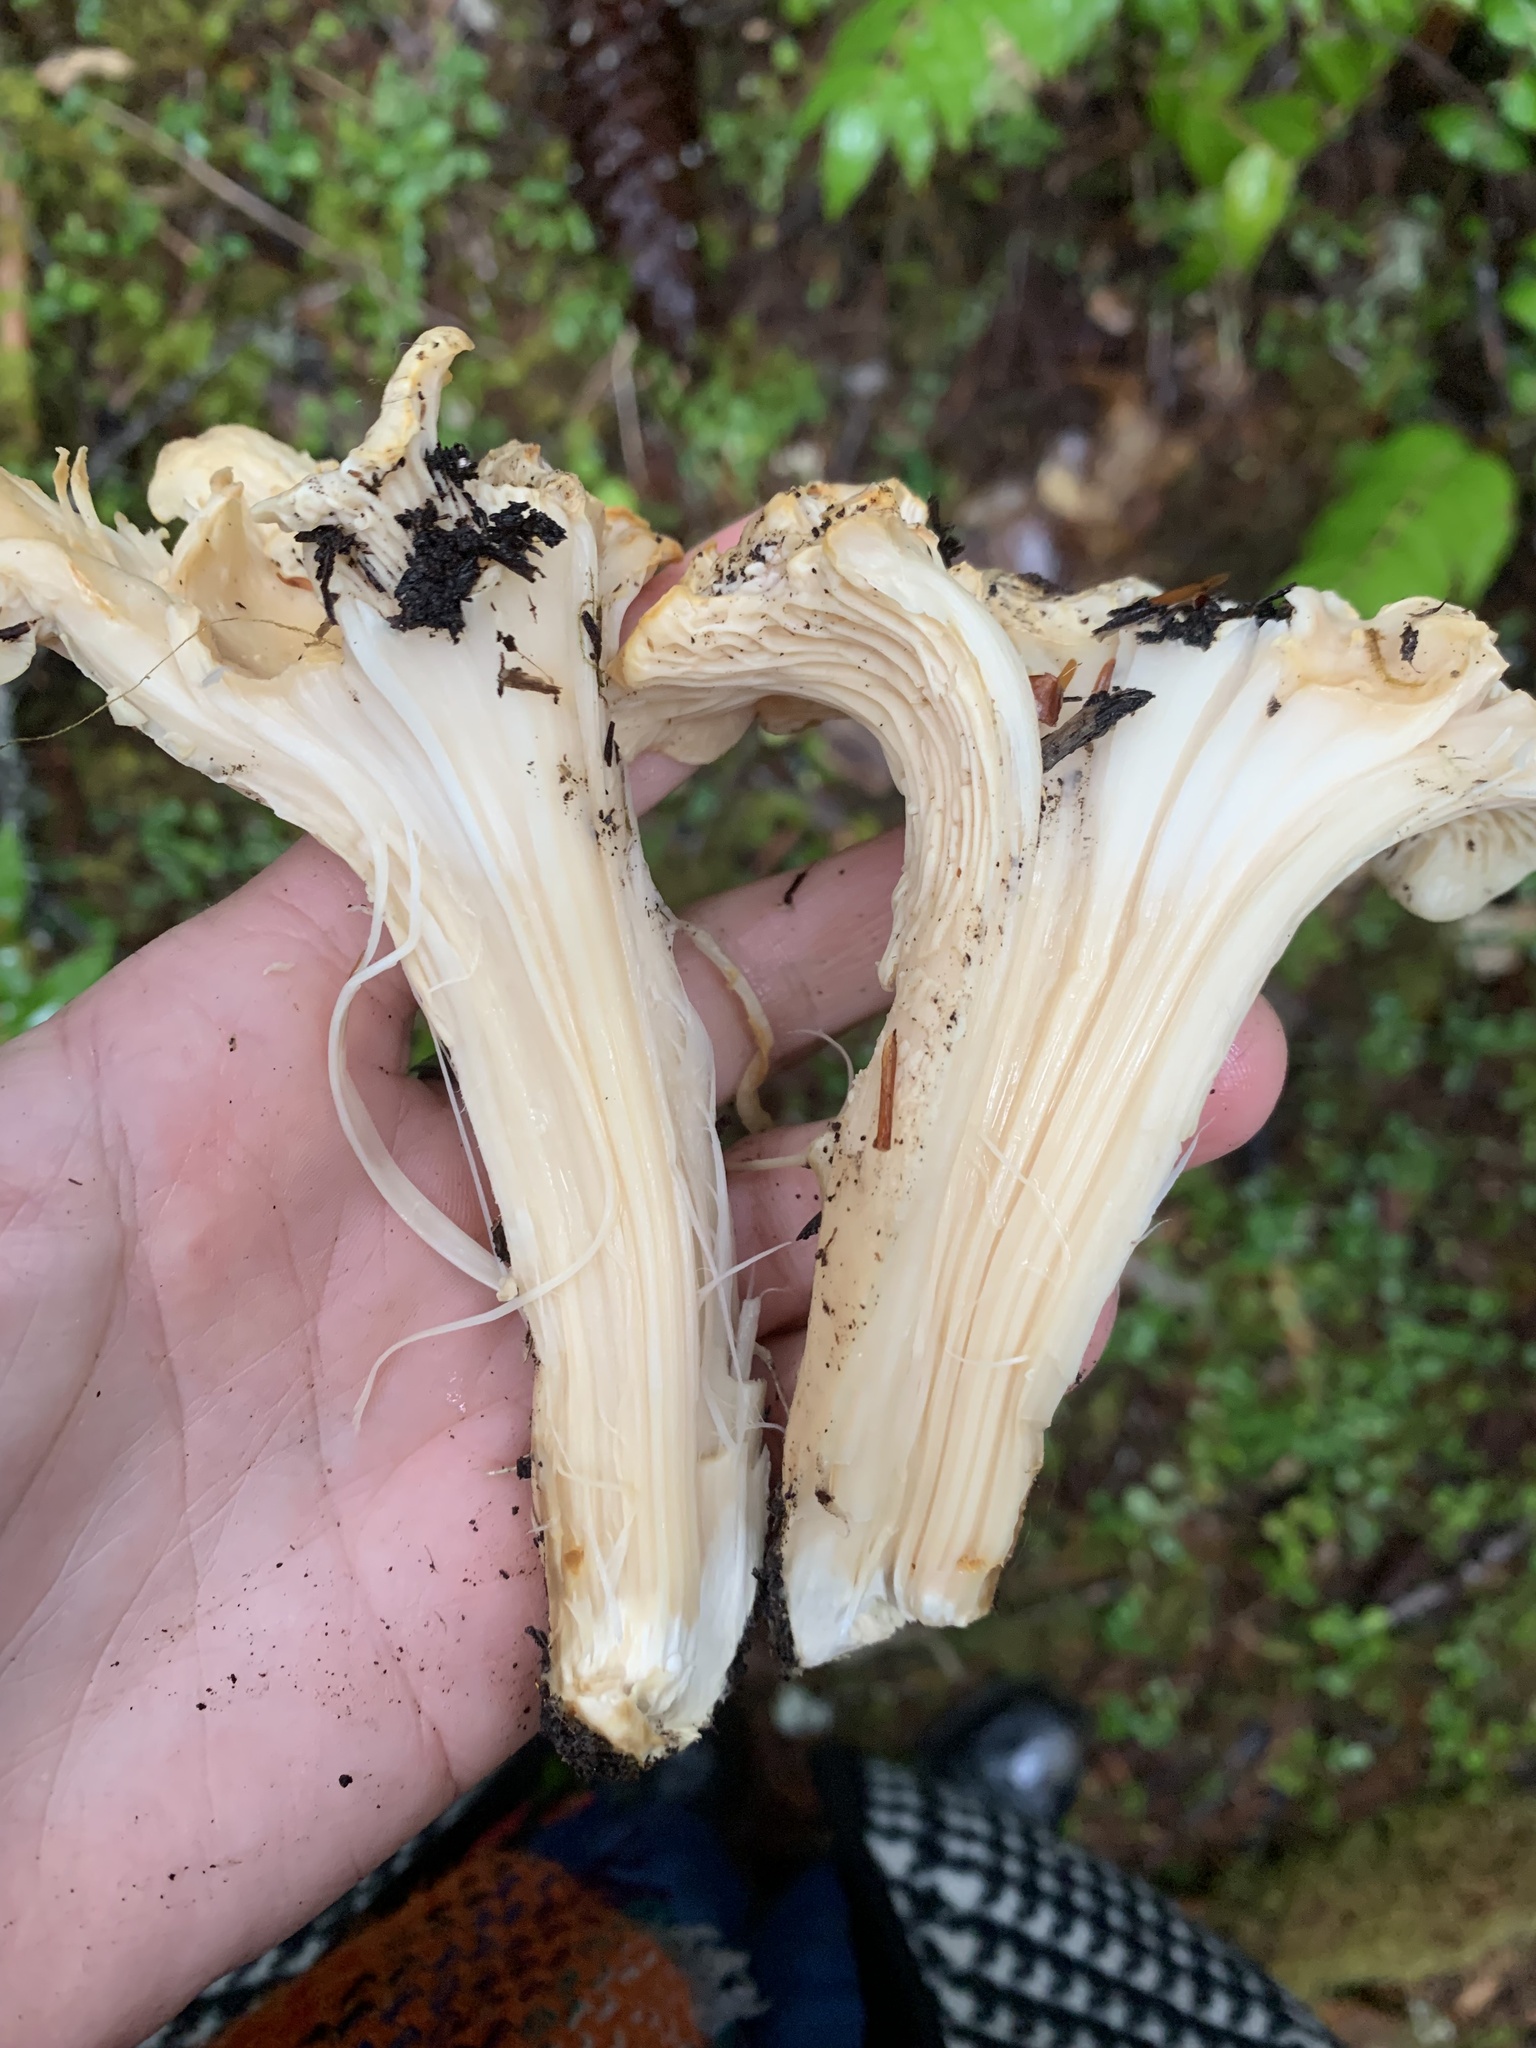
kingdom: Fungi
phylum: Basidiomycota
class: Agaricomycetes
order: Cantharellales
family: Hydnaceae
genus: Cantharellus
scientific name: Cantharellus subalbidus
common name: White chanterelle
